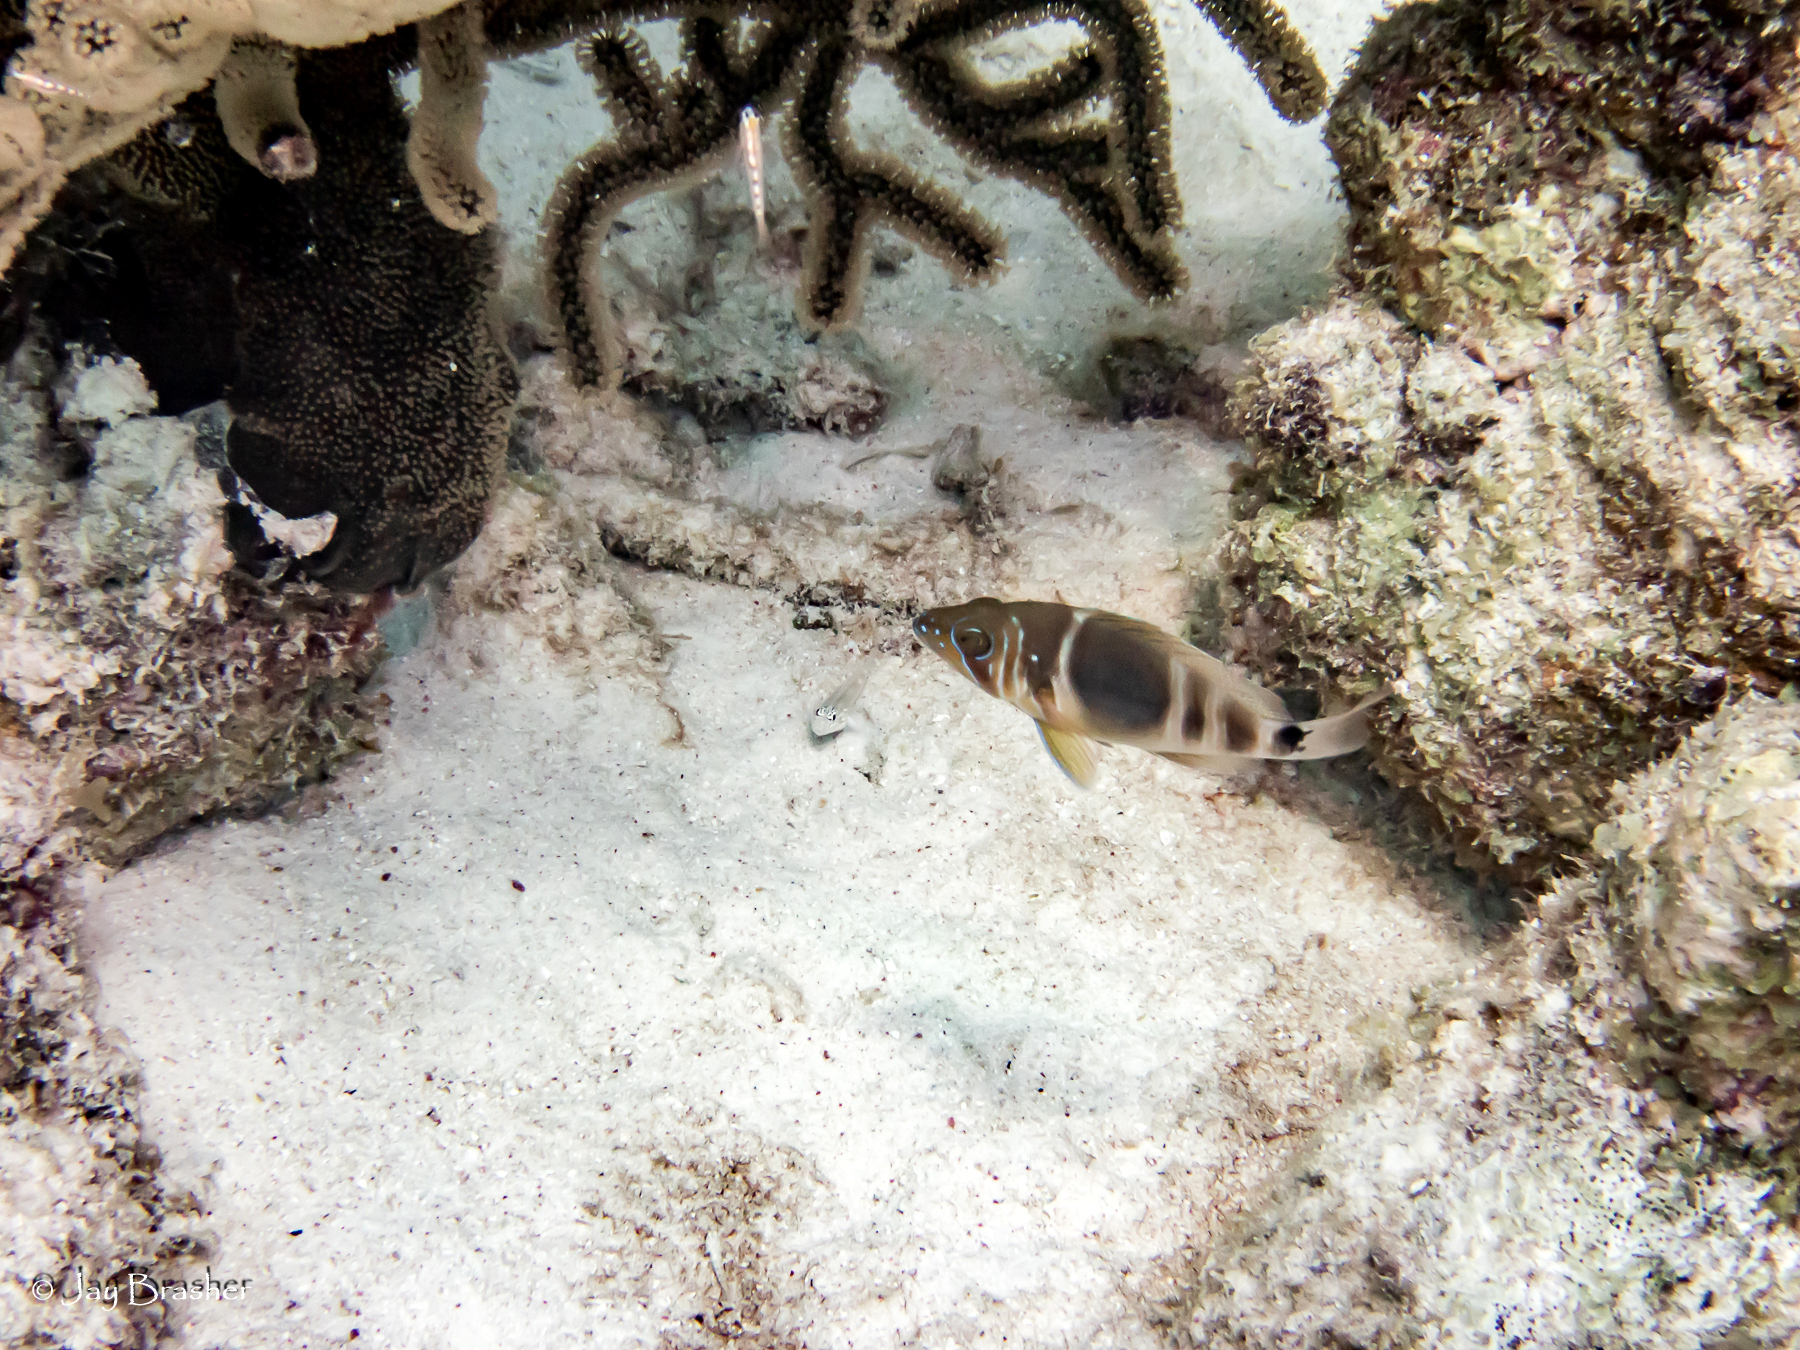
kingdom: Animalia
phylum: Chordata
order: Perciformes
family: Serranidae
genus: Hypoplectrus
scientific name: Hypoplectrus puella
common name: Barred hamlet
